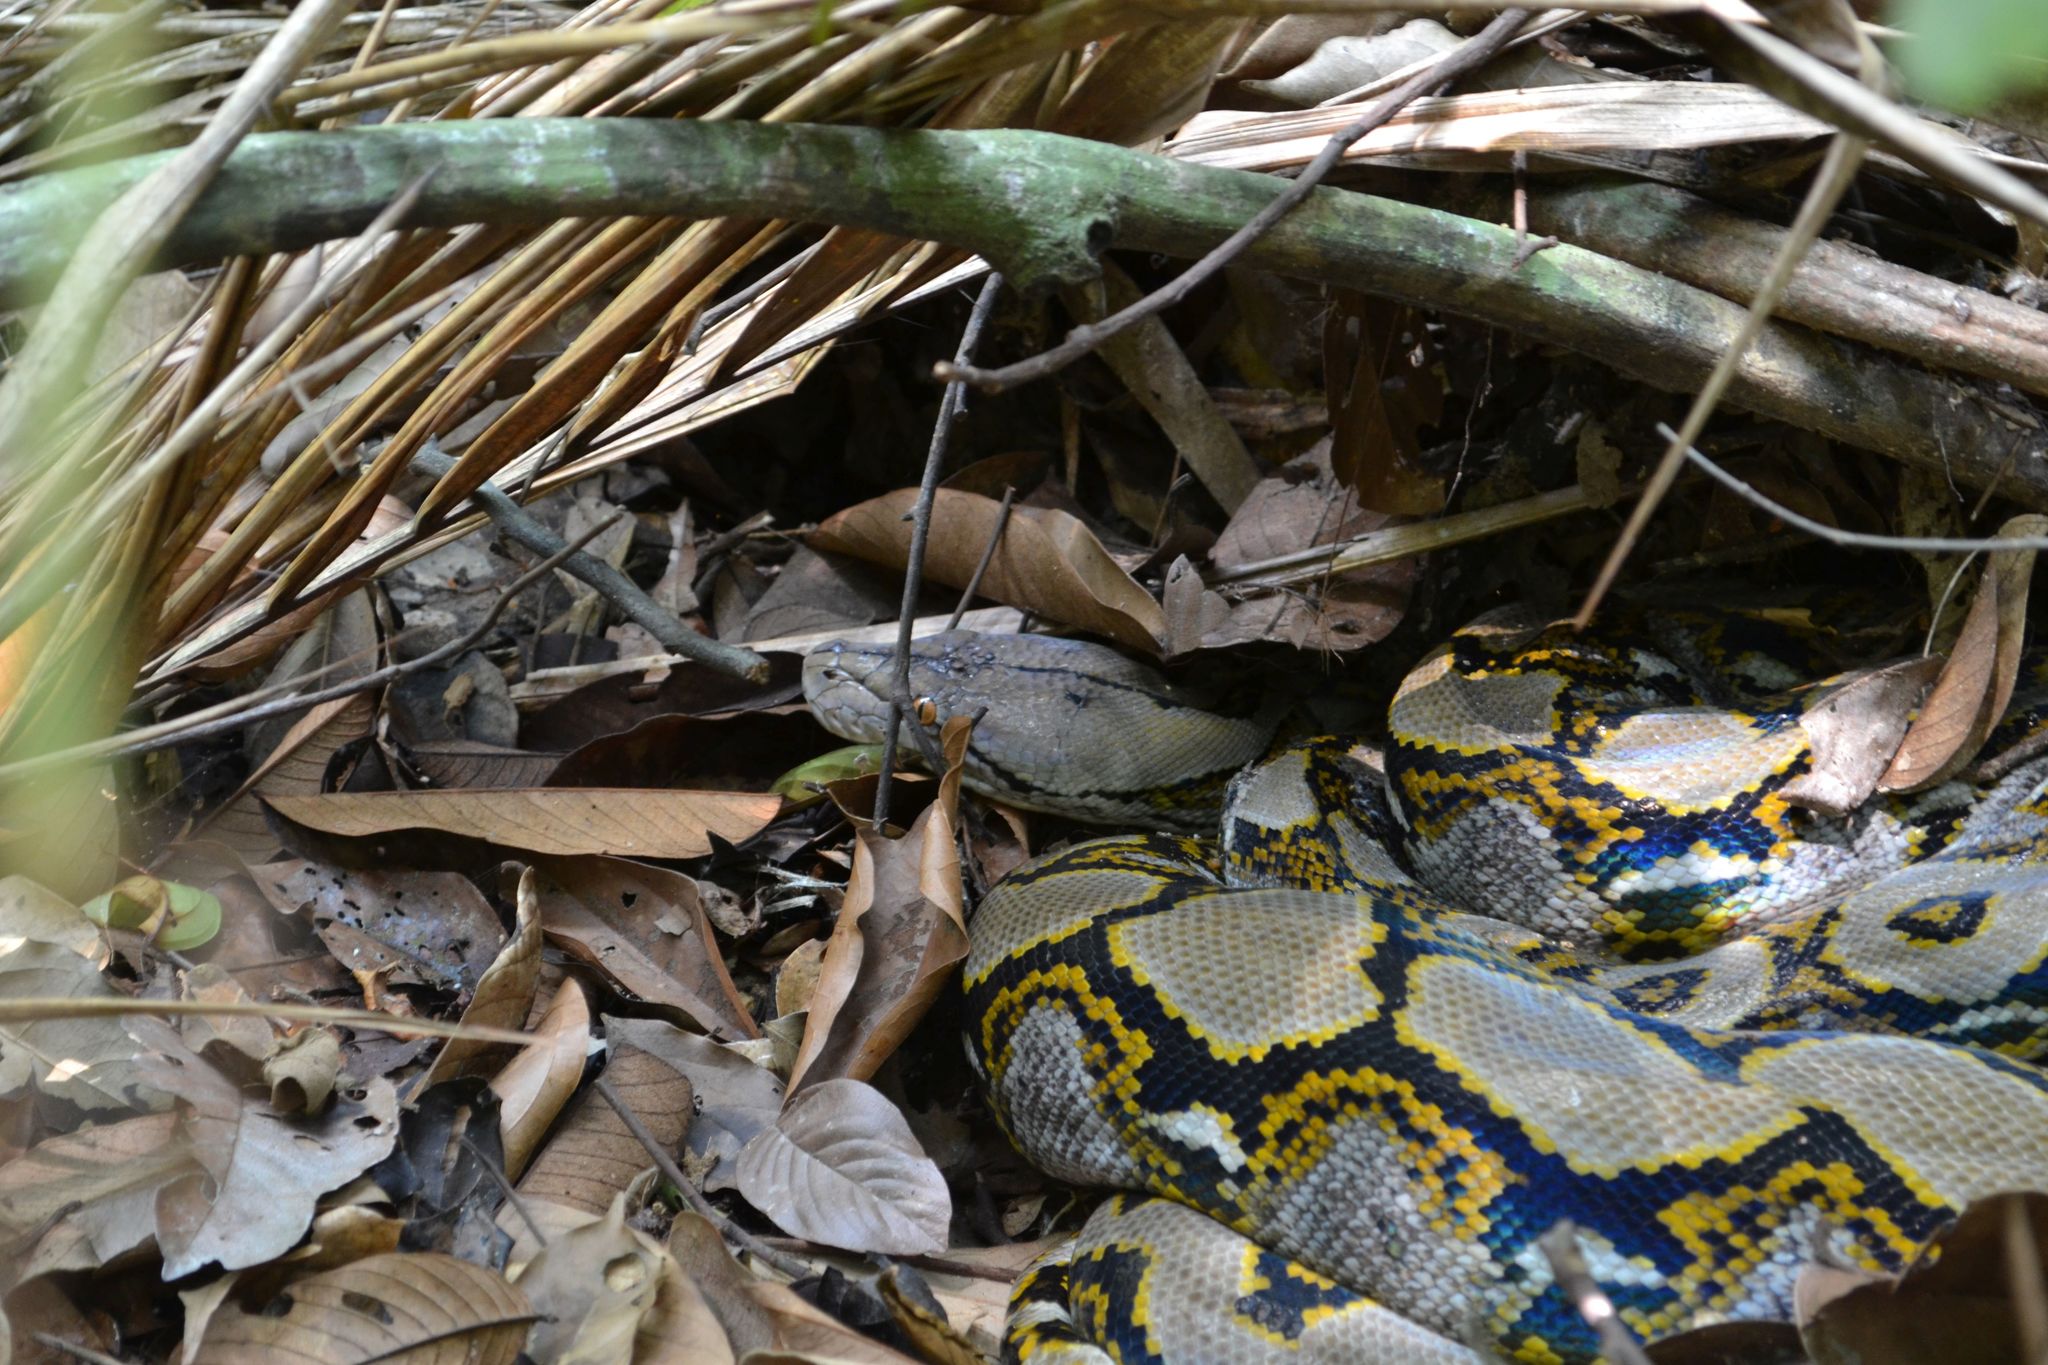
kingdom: Animalia
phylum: Chordata
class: Squamata
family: Pythonidae
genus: Malayopython
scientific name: Malayopython reticulatus
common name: Reticulated python
